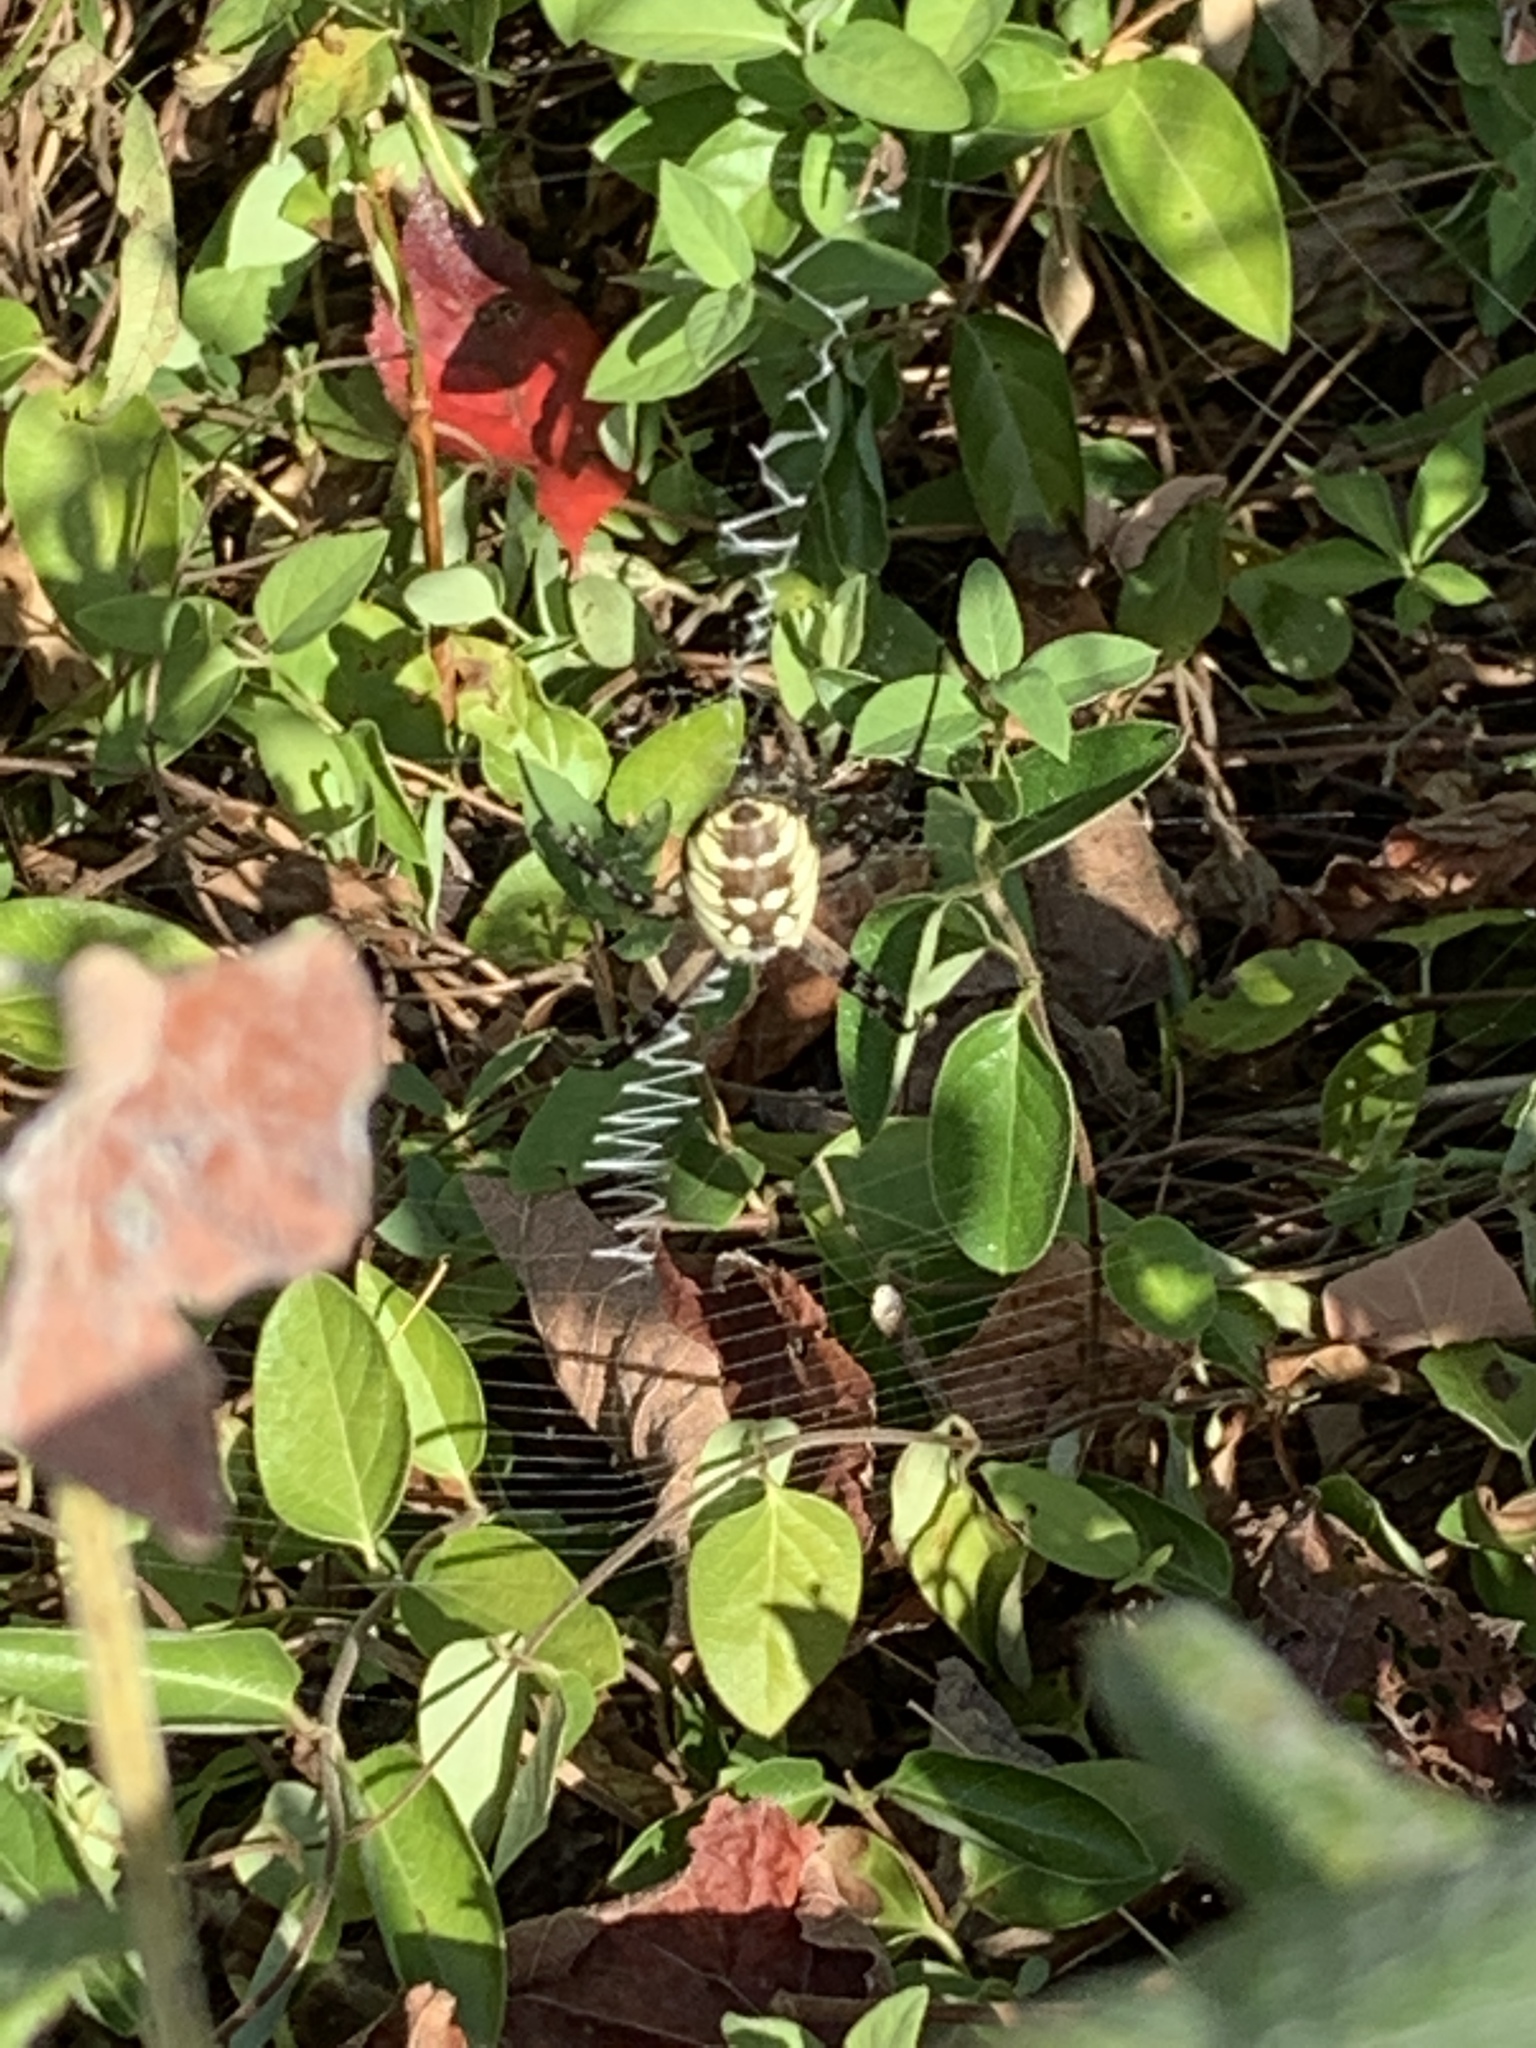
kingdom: Animalia
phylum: Arthropoda
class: Arachnida
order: Araneae
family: Araneidae
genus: Argiope
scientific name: Argiope aurantia
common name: Orb weavers
